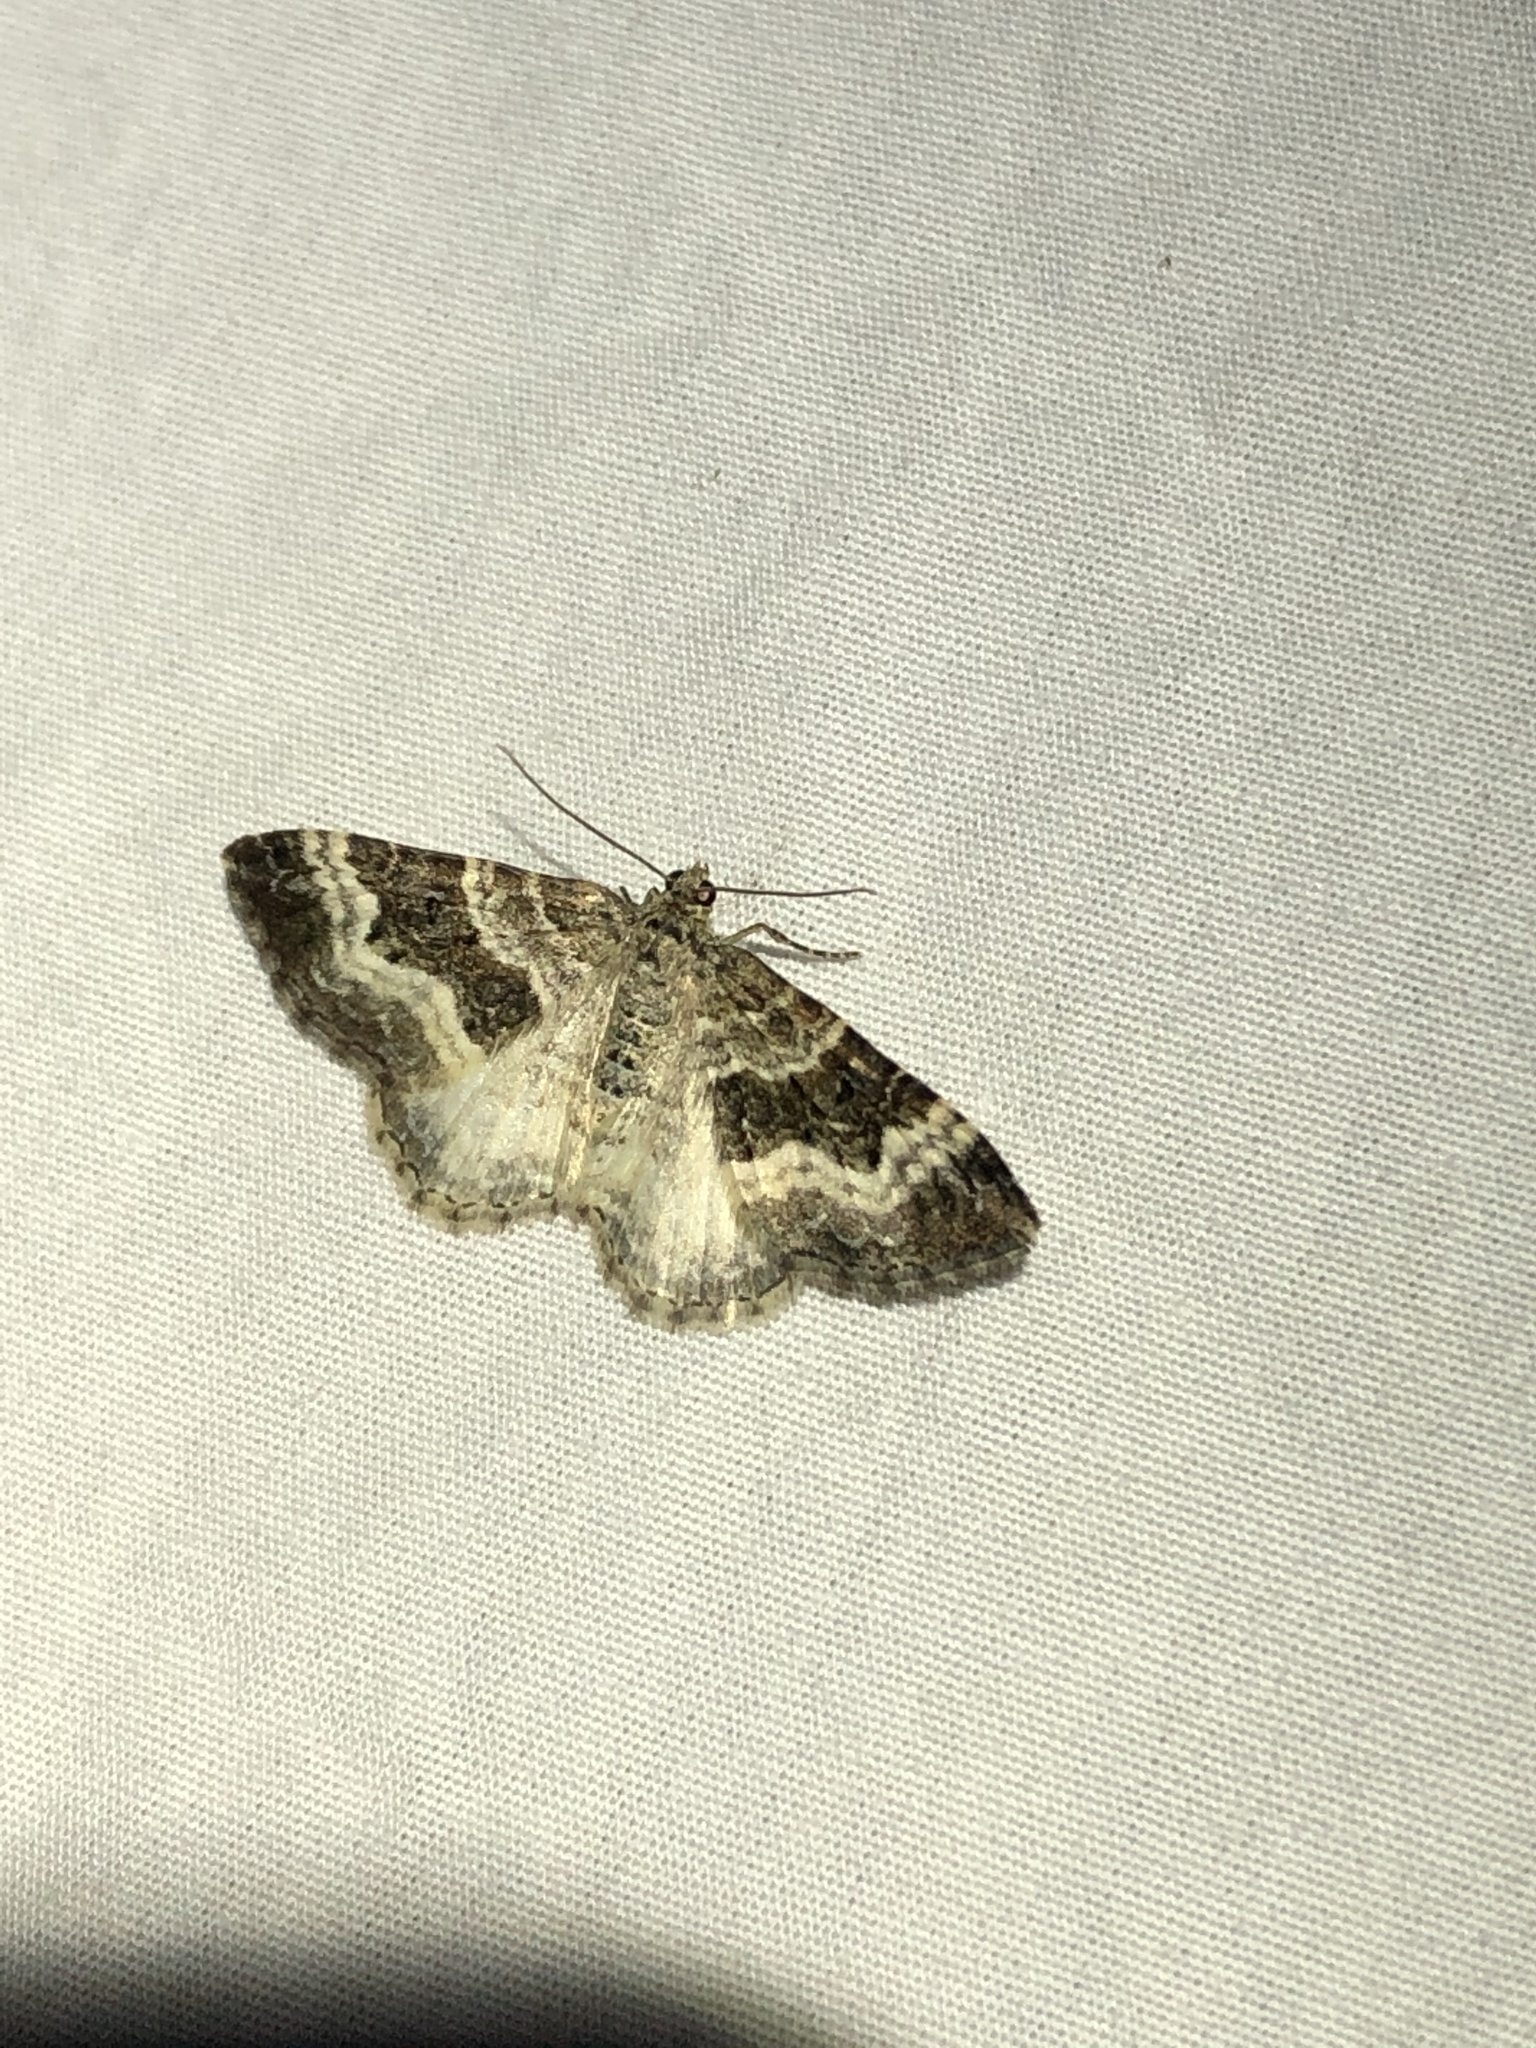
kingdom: Animalia
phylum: Arthropoda
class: Insecta
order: Lepidoptera
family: Geometridae
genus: Epirrhoe
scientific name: Epirrhoe alternata
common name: Common carpet
